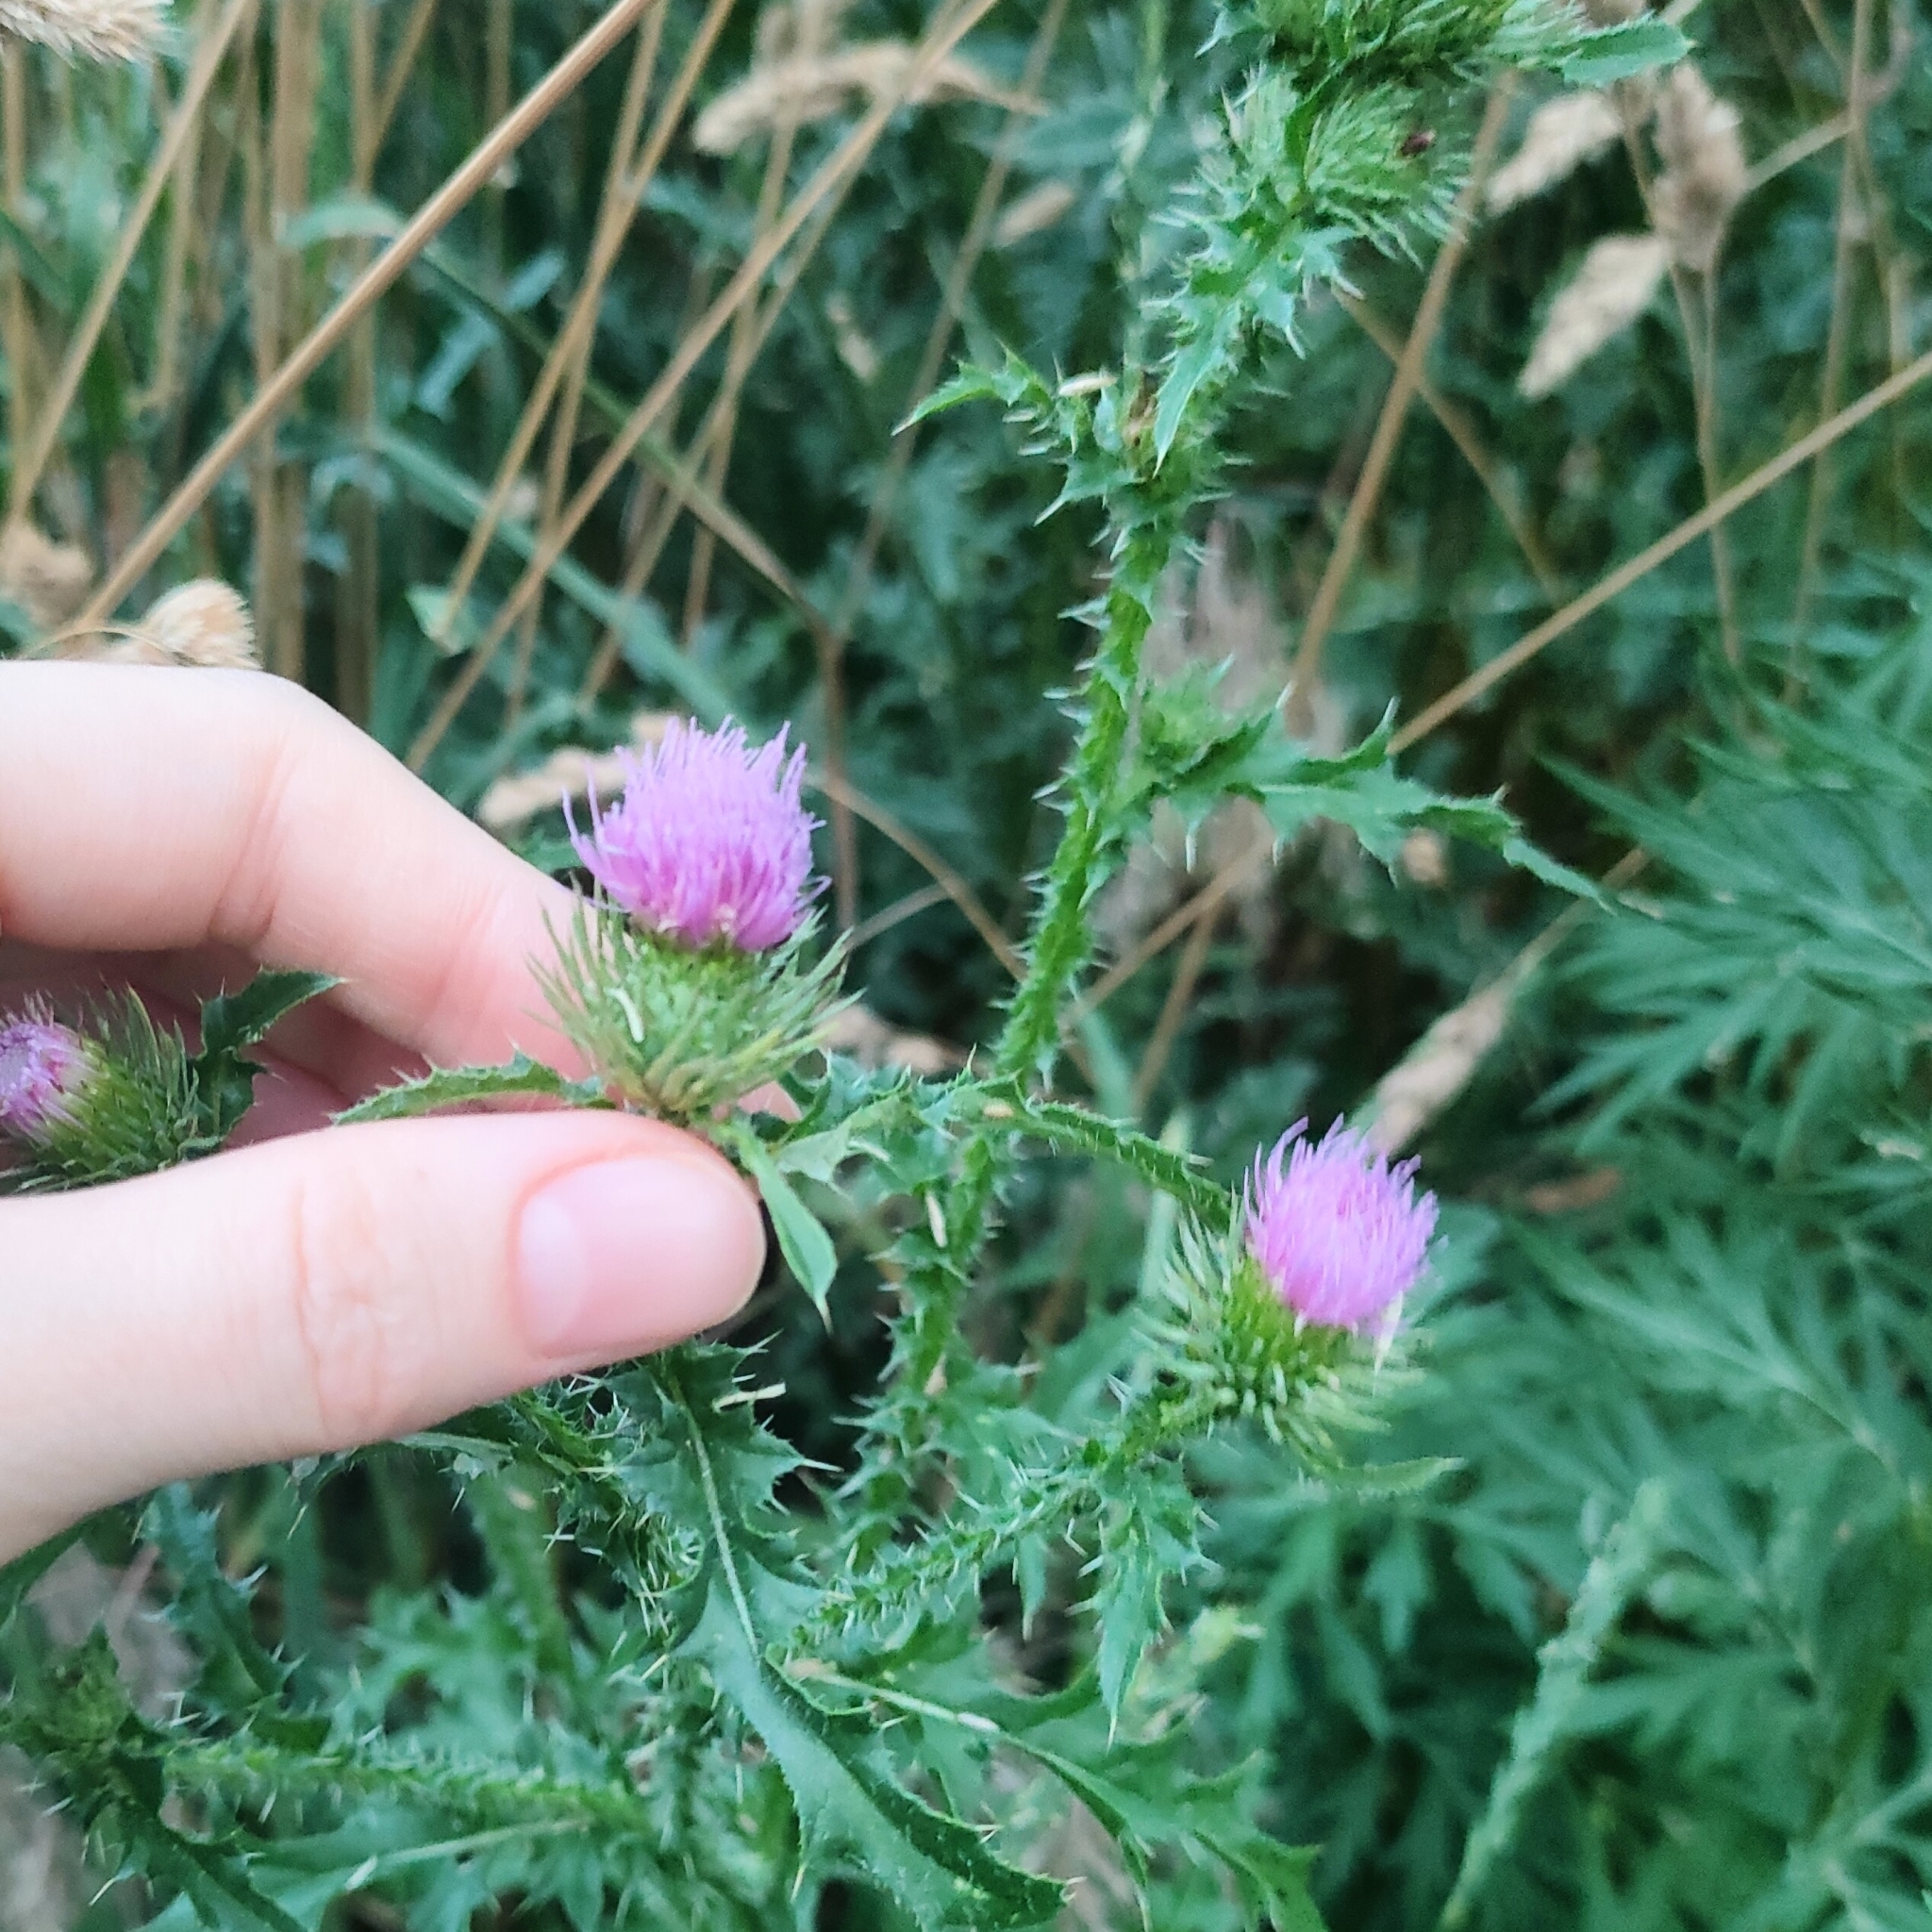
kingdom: Plantae
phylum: Tracheophyta
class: Magnoliopsida
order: Asterales
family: Asteraceae
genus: Carduus
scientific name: Carduus acanthoides
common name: Plumeless thistle
